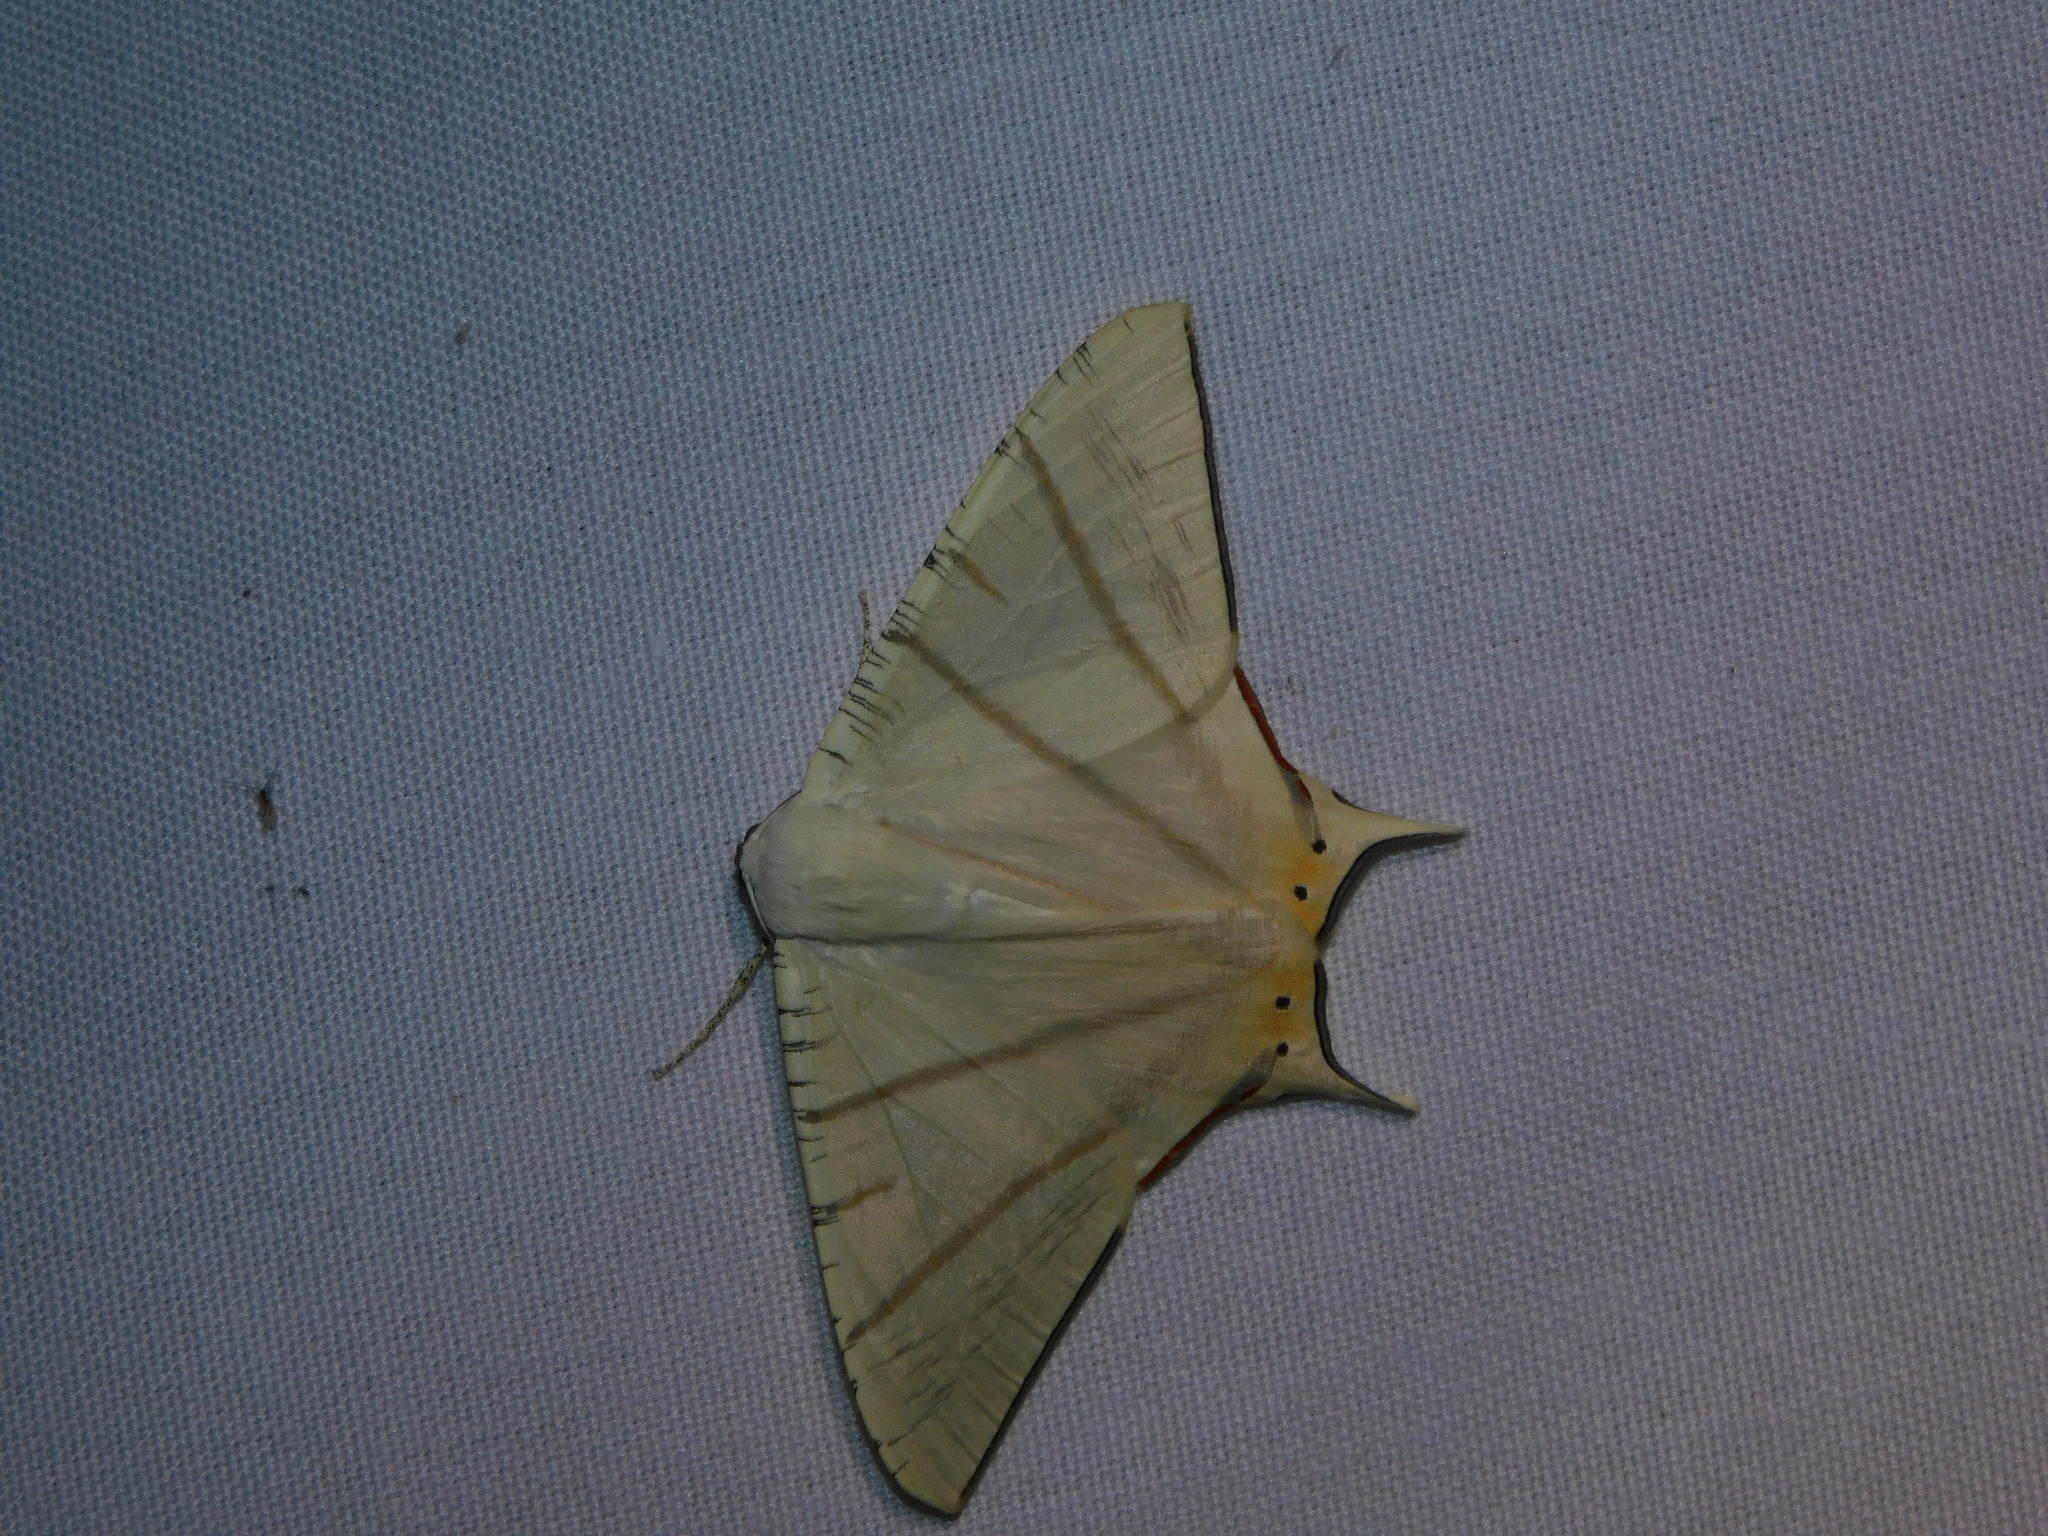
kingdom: Animalia
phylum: Arthropoda
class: Insecta
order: Lepidoptera
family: Geometridae
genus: Ourapteryx
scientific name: Ourapteryx marginata
